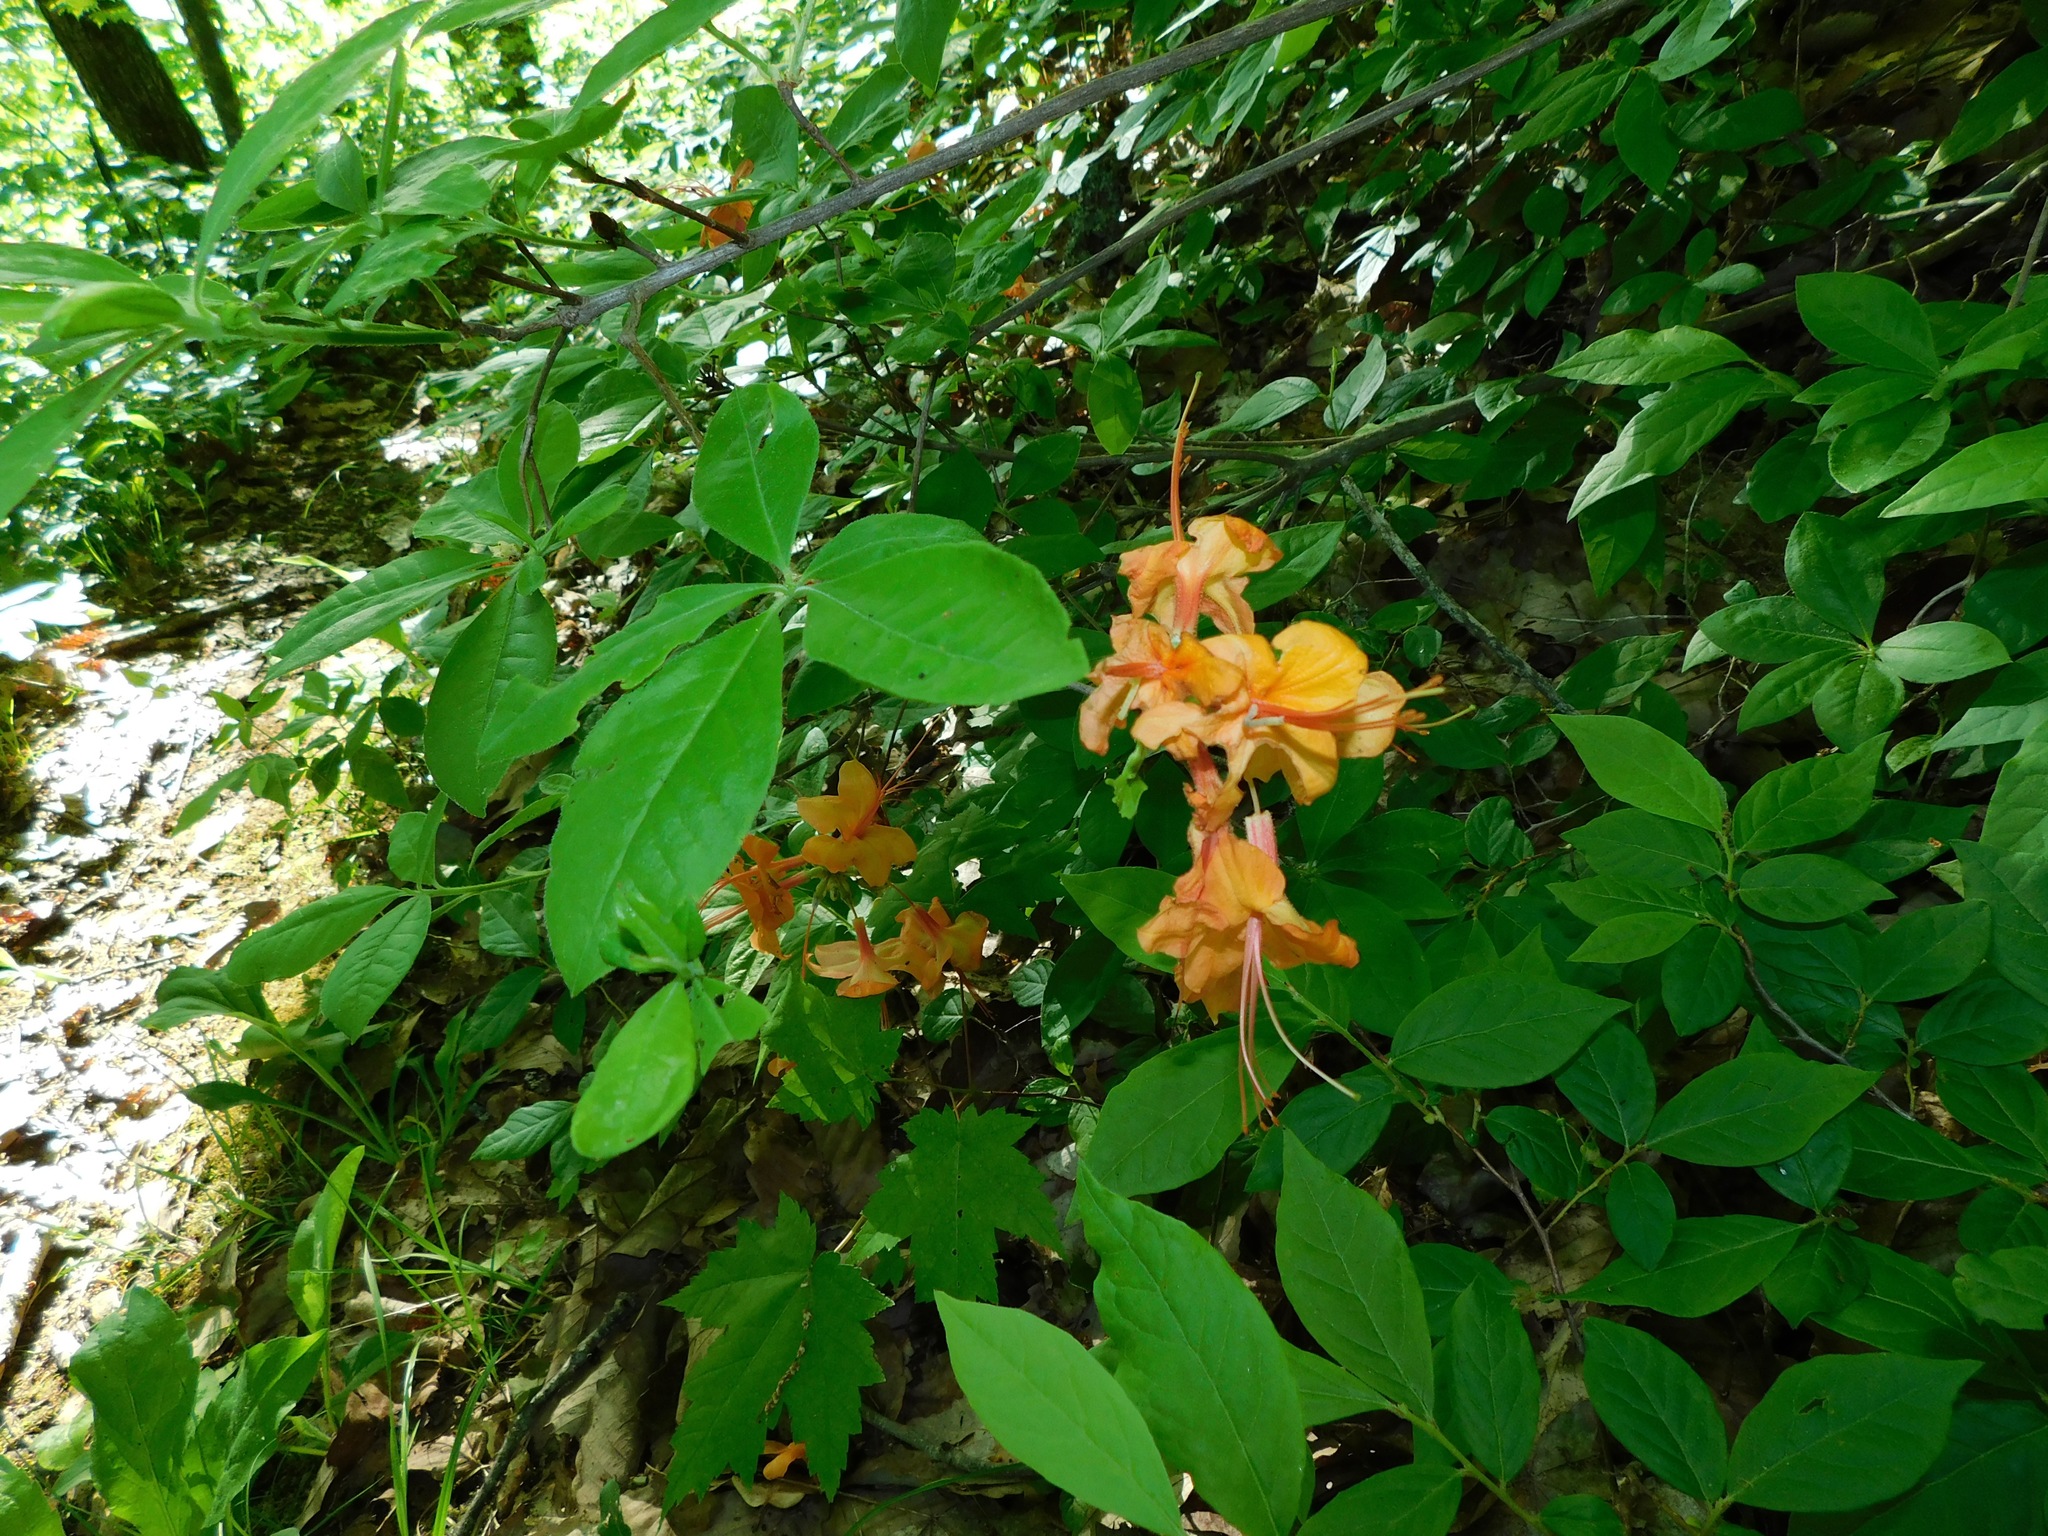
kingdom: Plantae
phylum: Tracheophyta
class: Magnoliopsida
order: Ericales
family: Ericaceae
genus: Rhododendron
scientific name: Rhododendron calendulaceum
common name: Flame azalea
